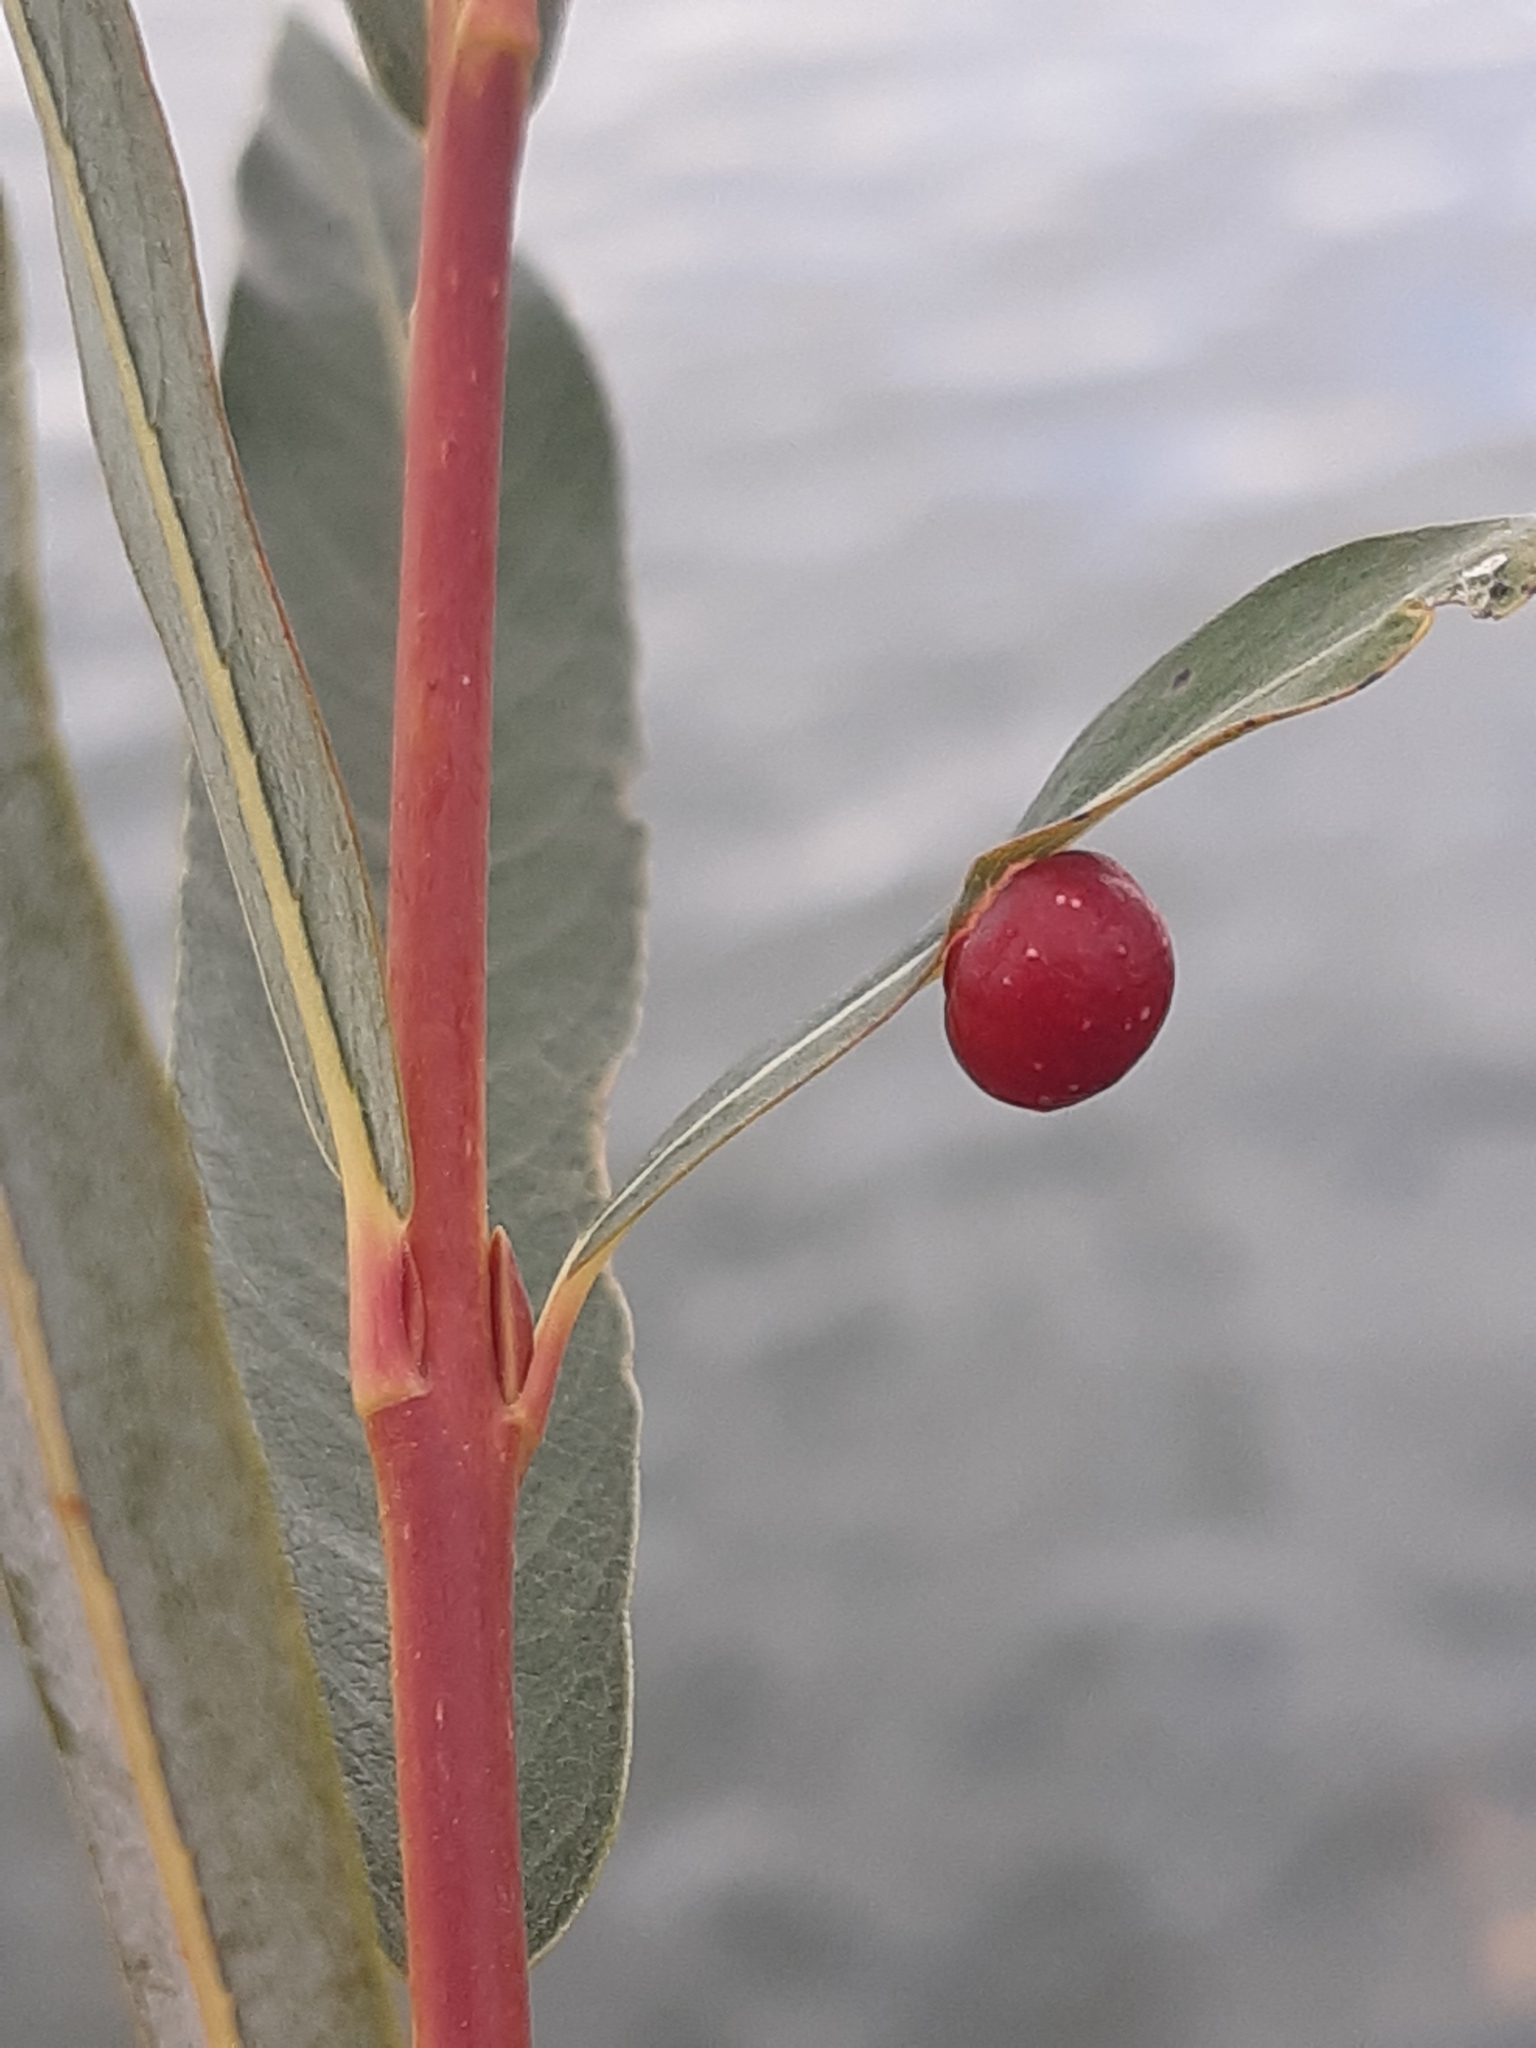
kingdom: Animalia
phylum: Arthropoda
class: Insecta
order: Hymenoptera
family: Tenthredinidae
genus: Euura
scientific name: Euura viminalis
